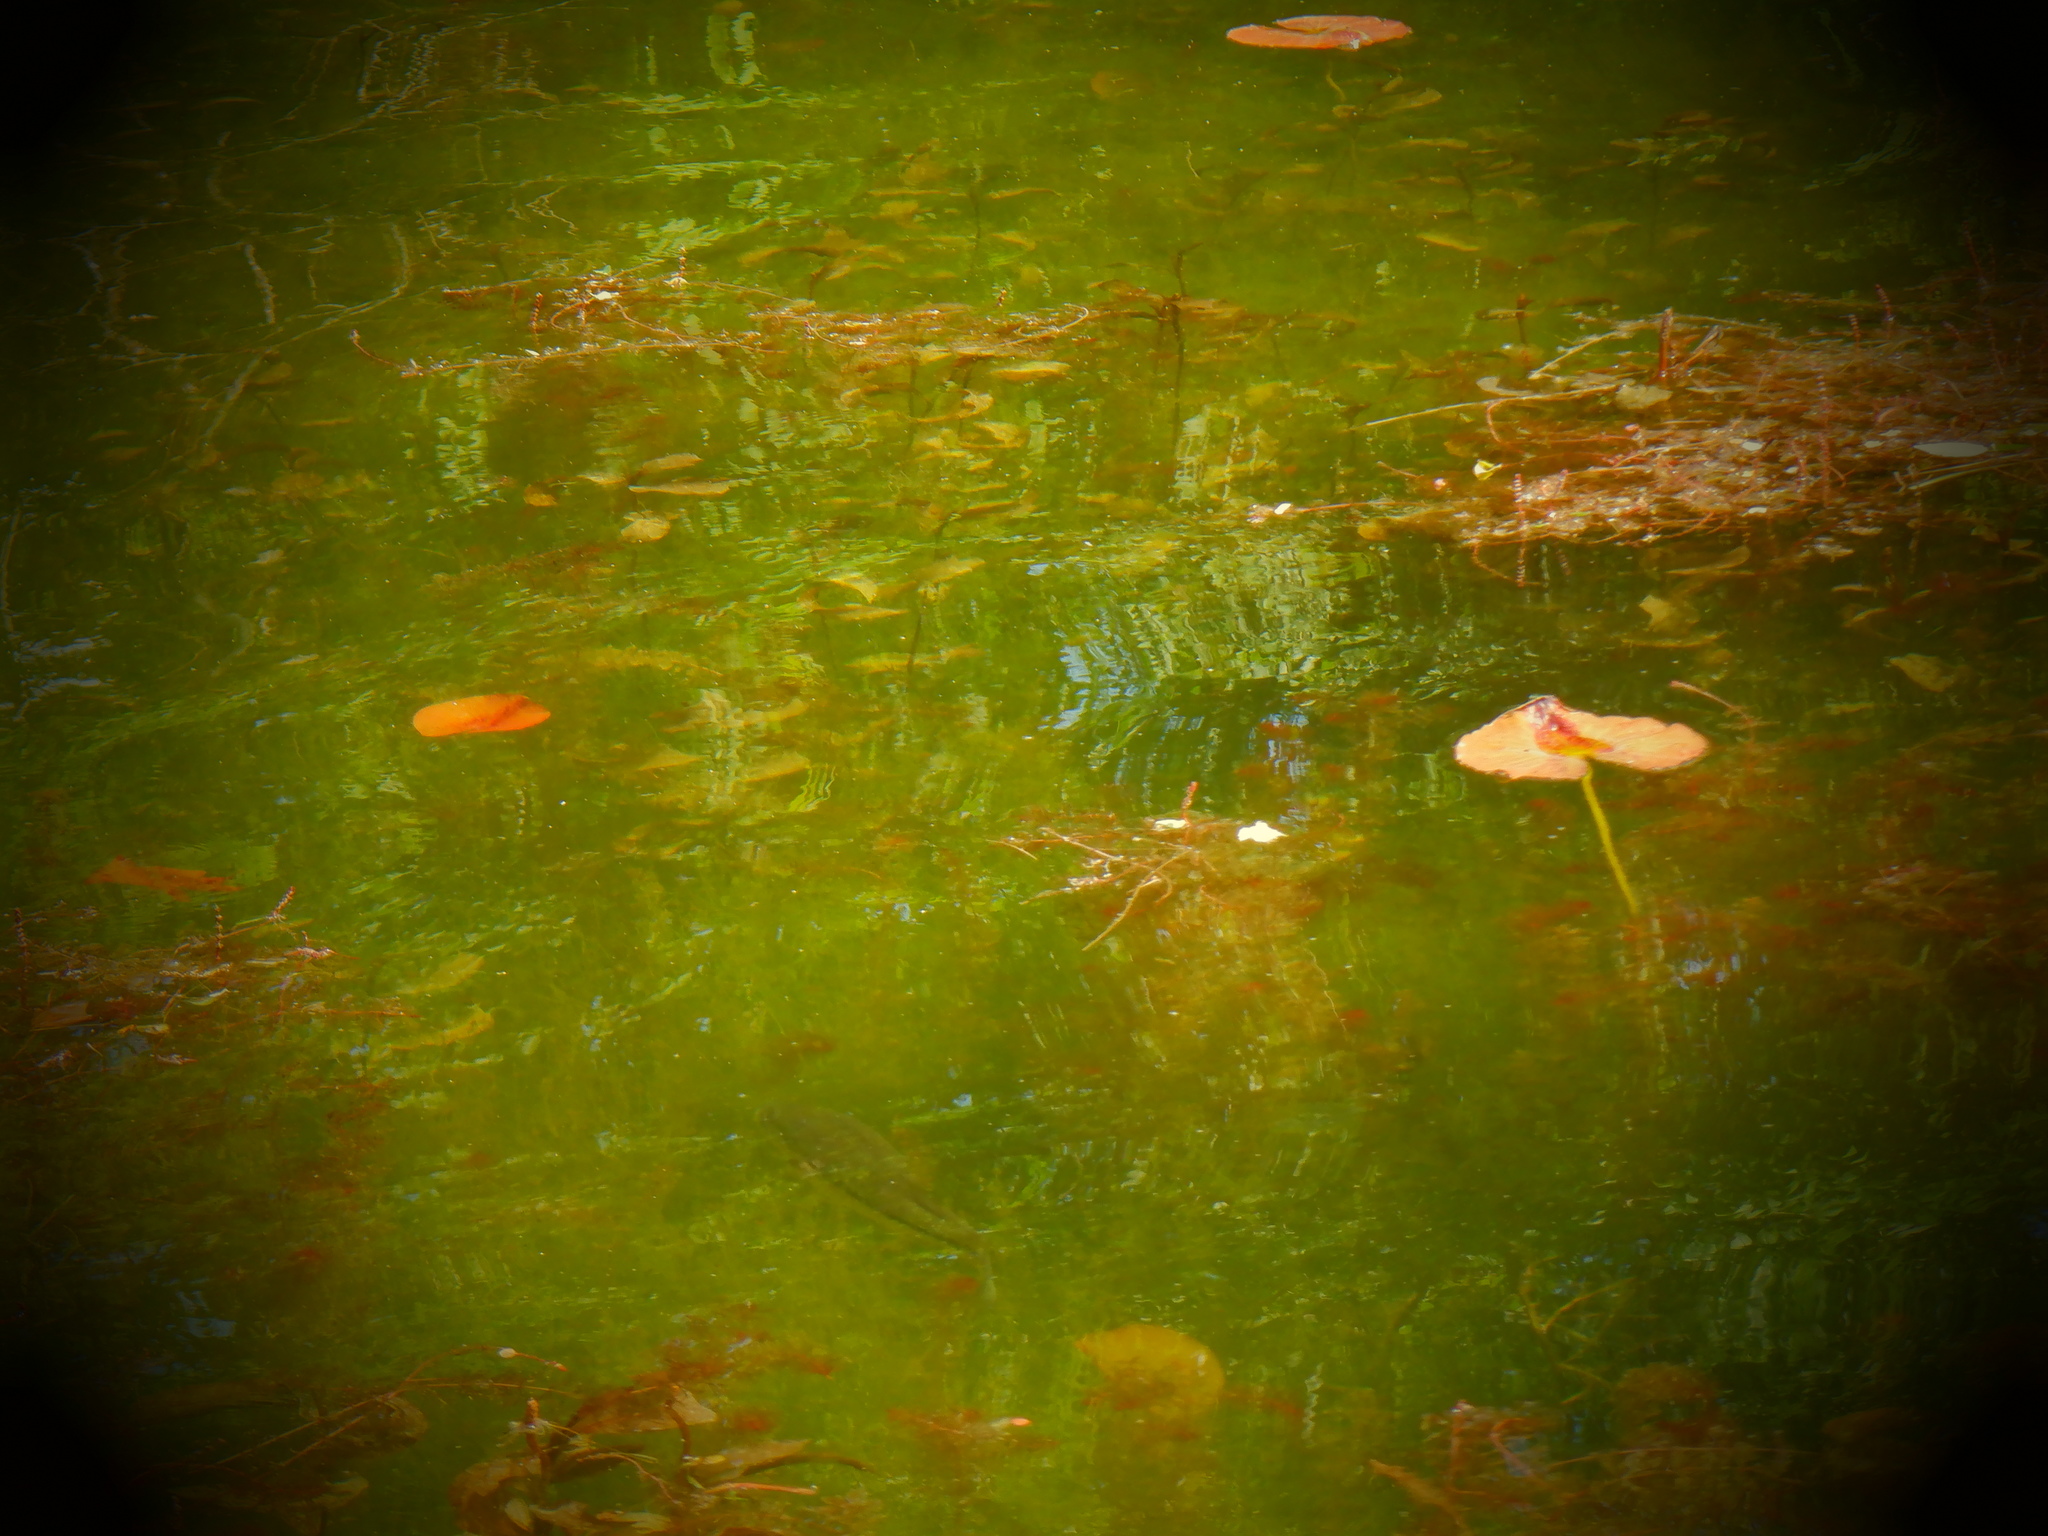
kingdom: Animalia
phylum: Chordata
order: Perciformes
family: Centrarchidae
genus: Micropterus
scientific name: Micropterus
